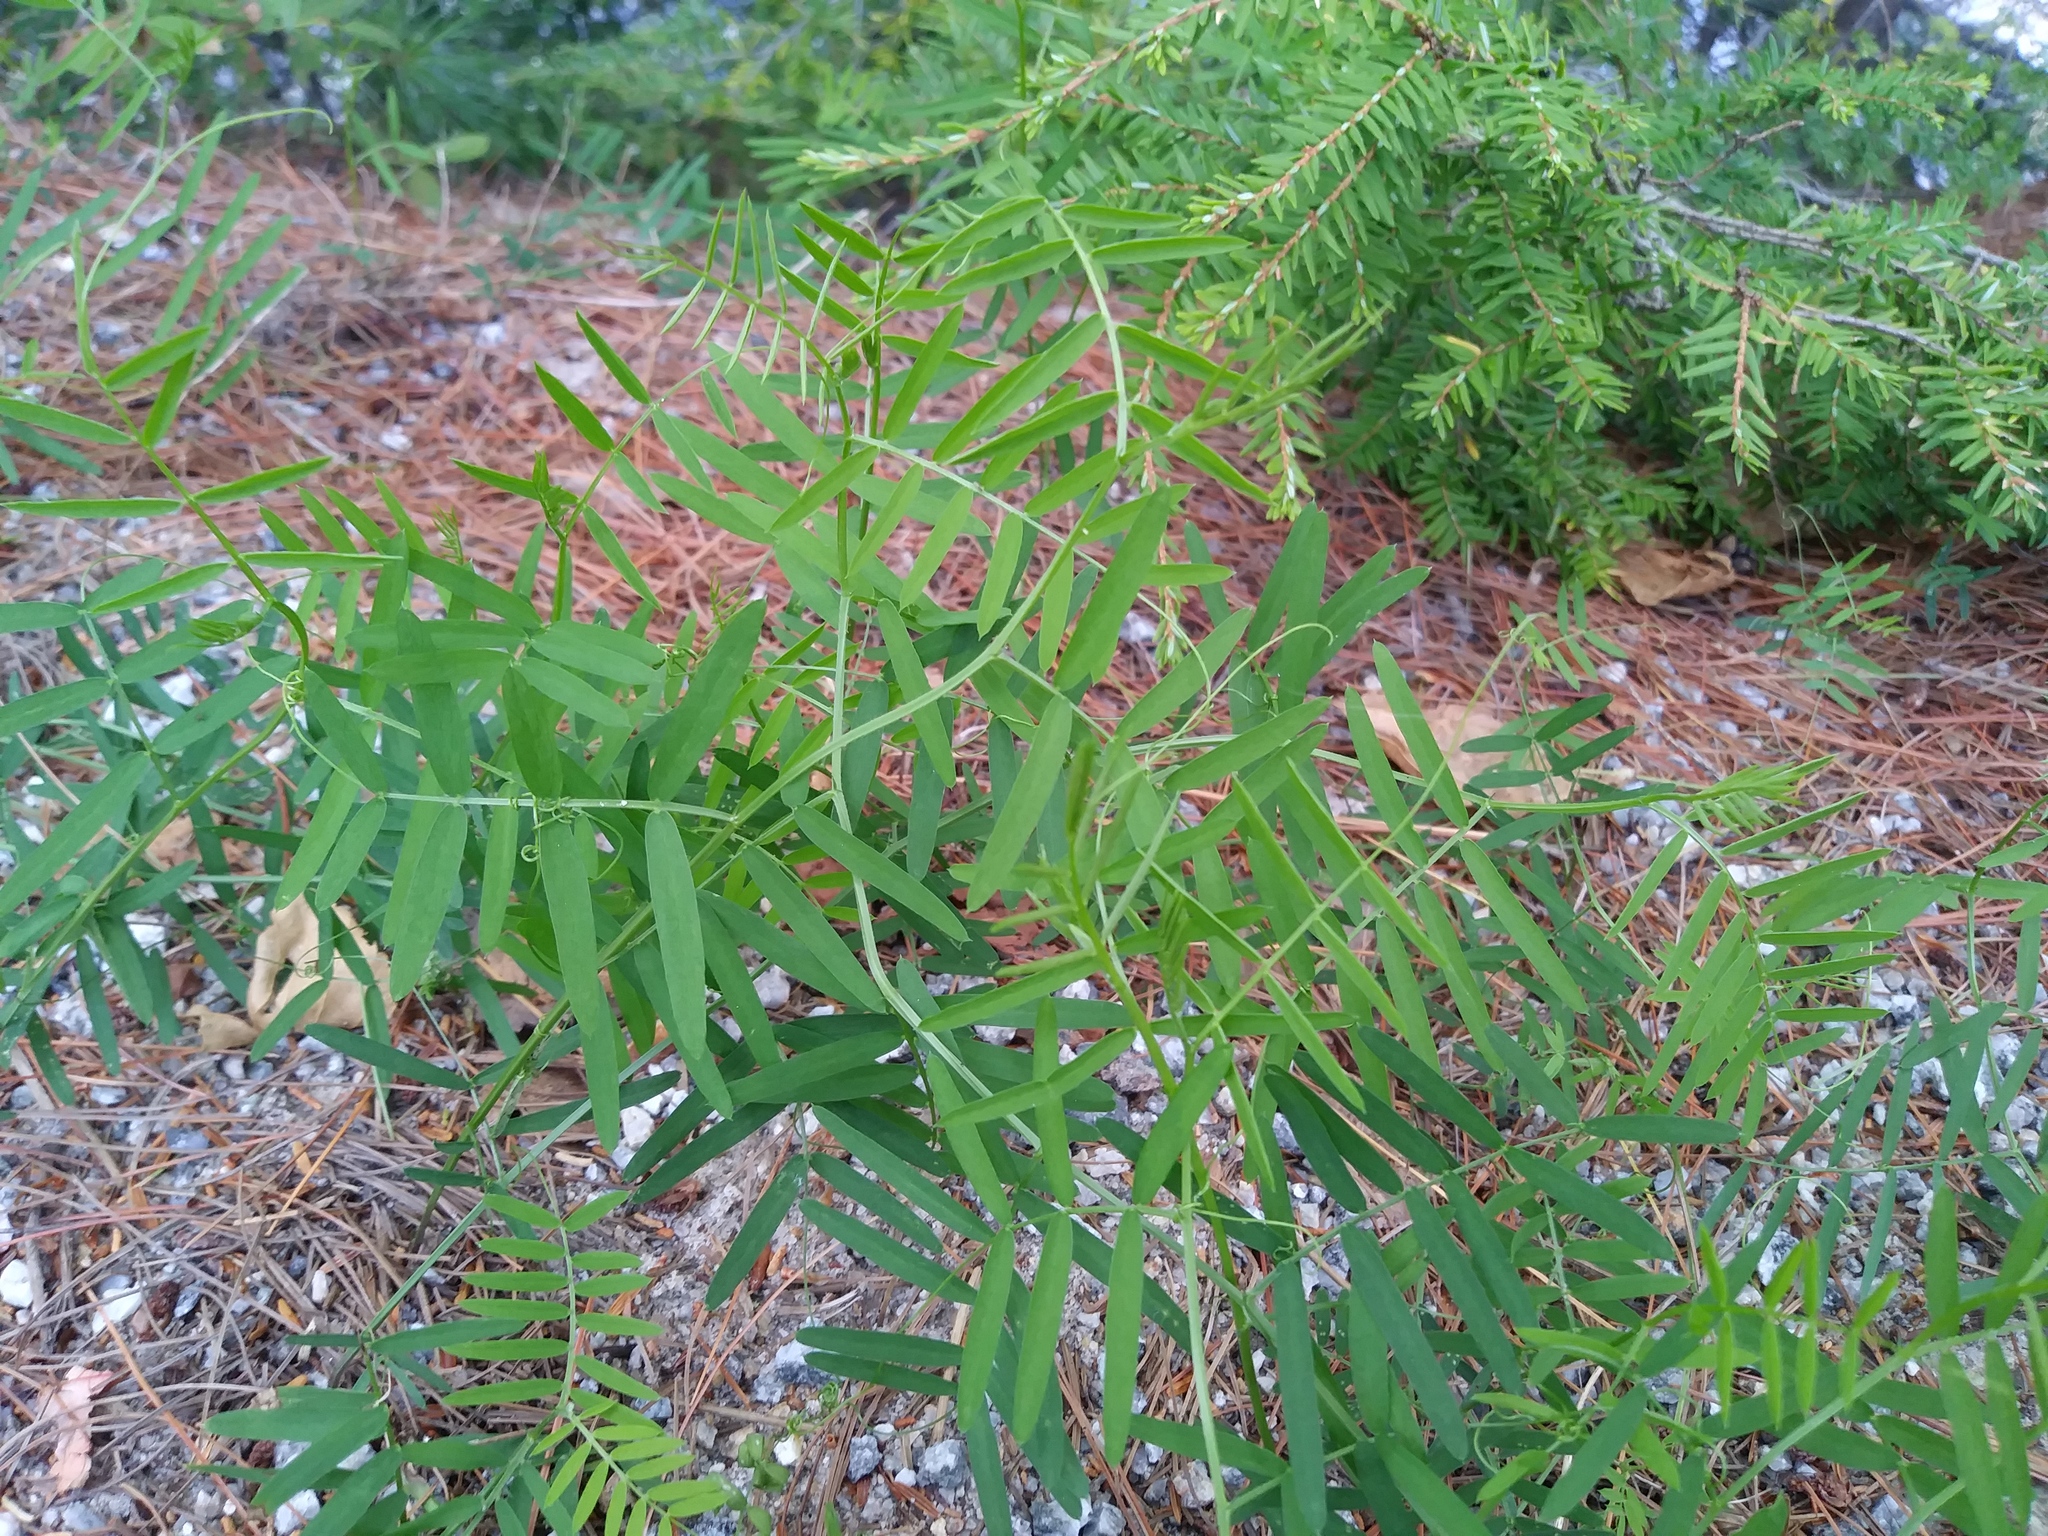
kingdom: Plantae
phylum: Tracheophyta
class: Magnoliopsida
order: Fabales
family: Fabaceae
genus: Vicia
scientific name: Vicia cracca
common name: Bird vetch
